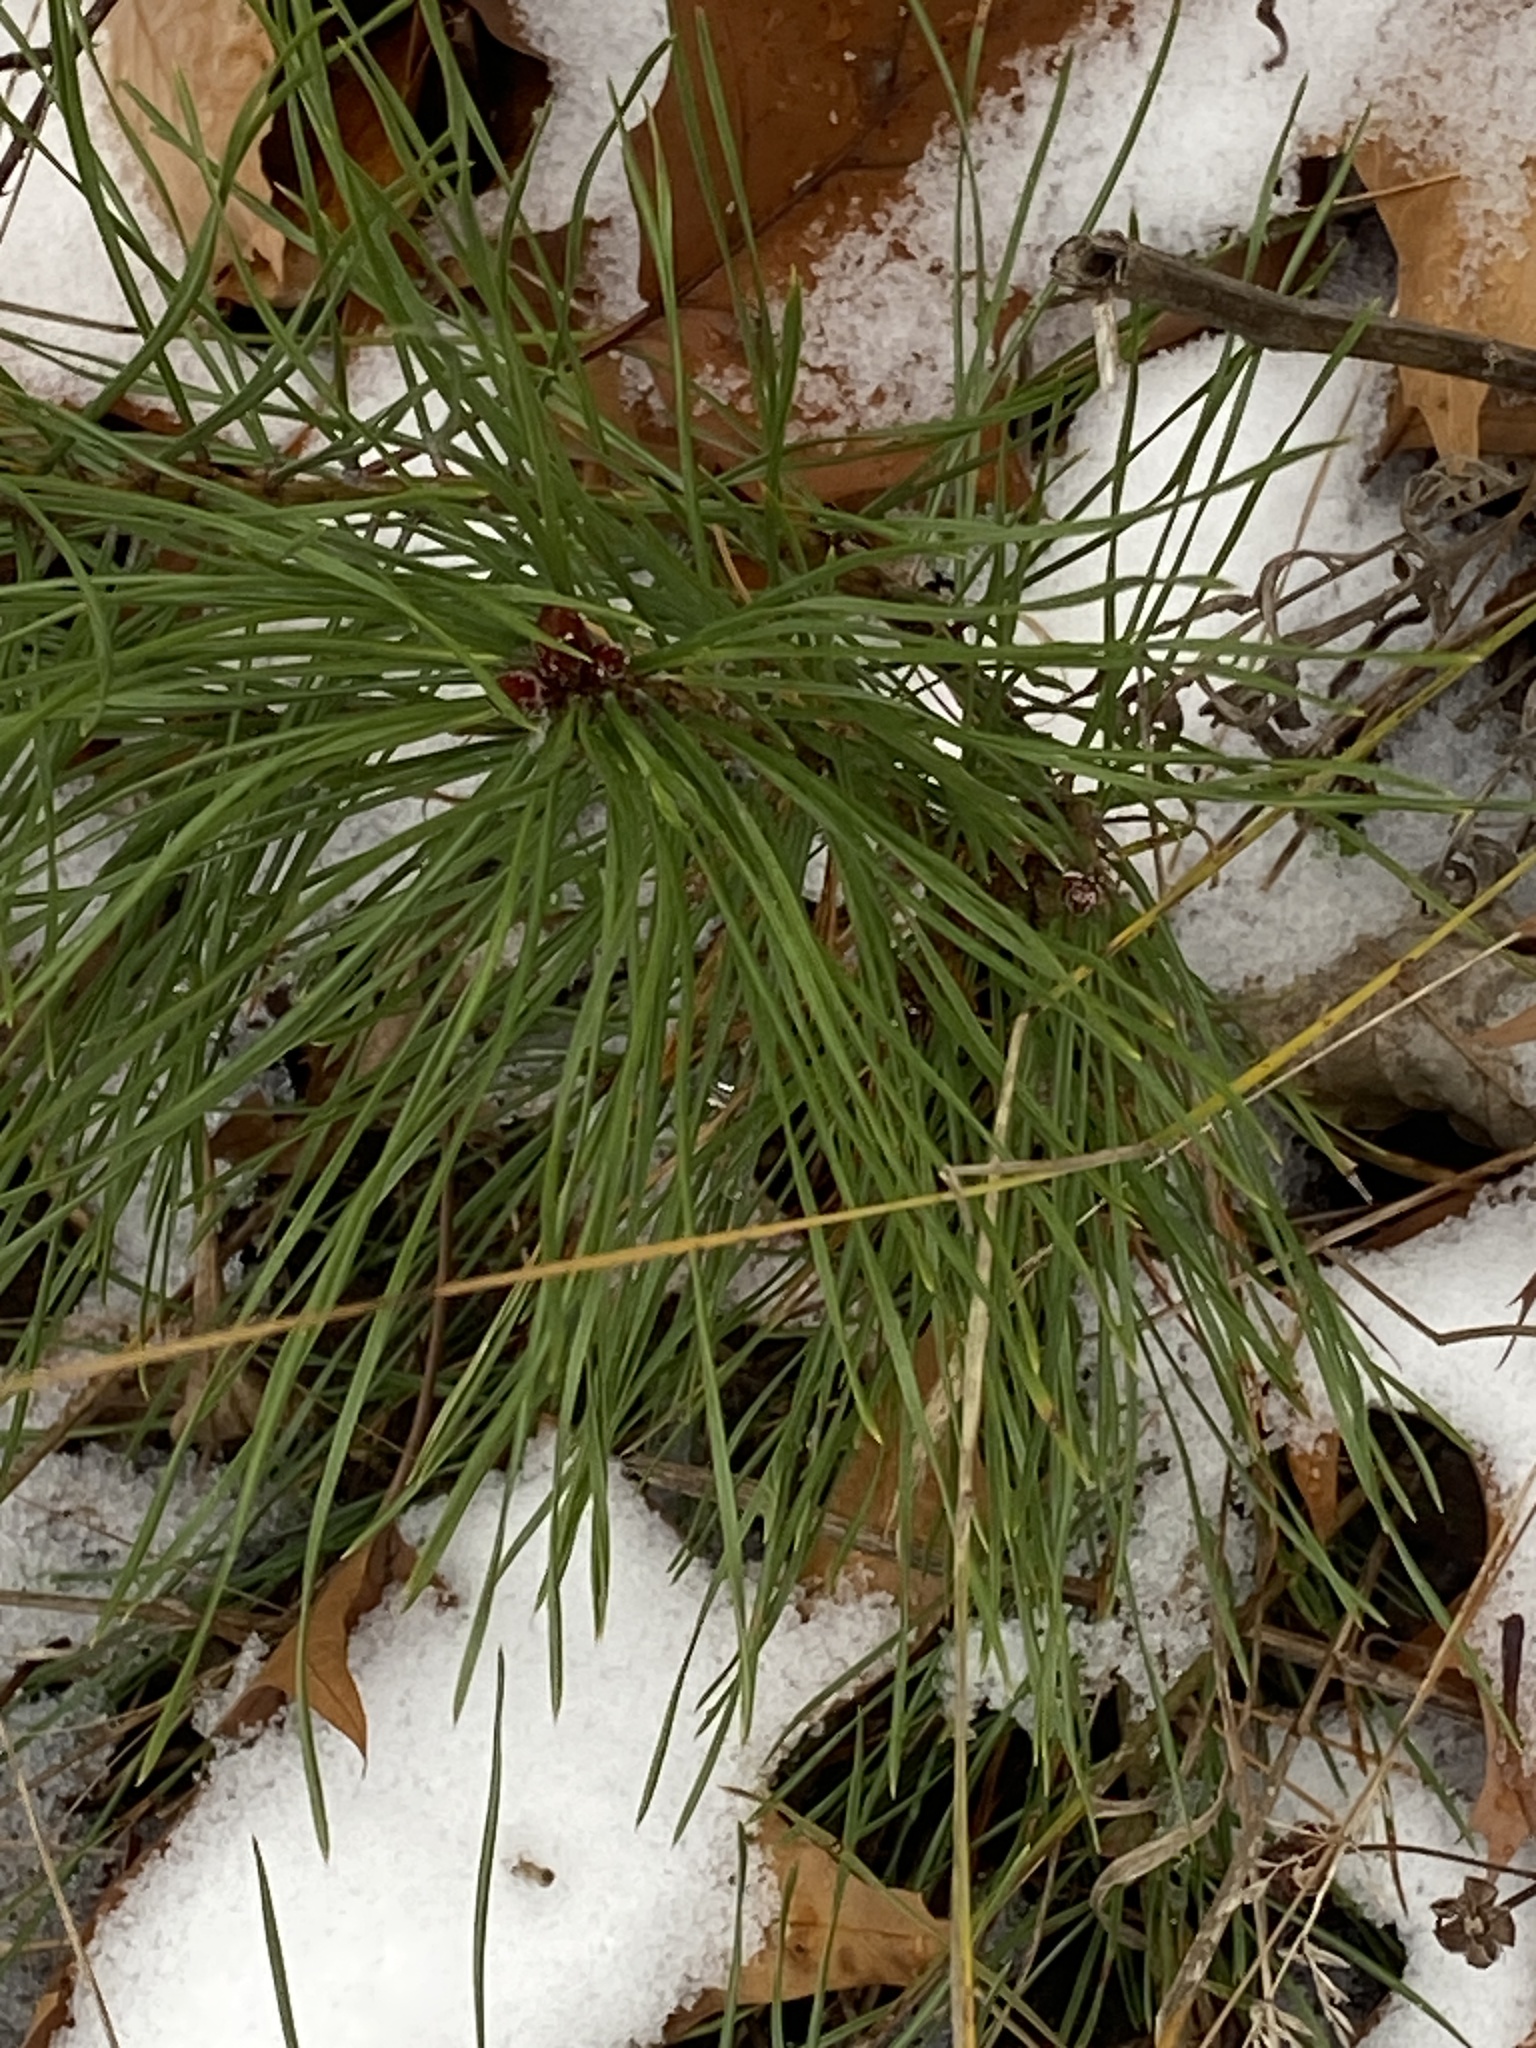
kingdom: Plantae
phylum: Tracheophyta
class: Pinopsida
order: Pinales
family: Pinaceae
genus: Pinus
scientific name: Pinus sylvestris
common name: Scots pine
